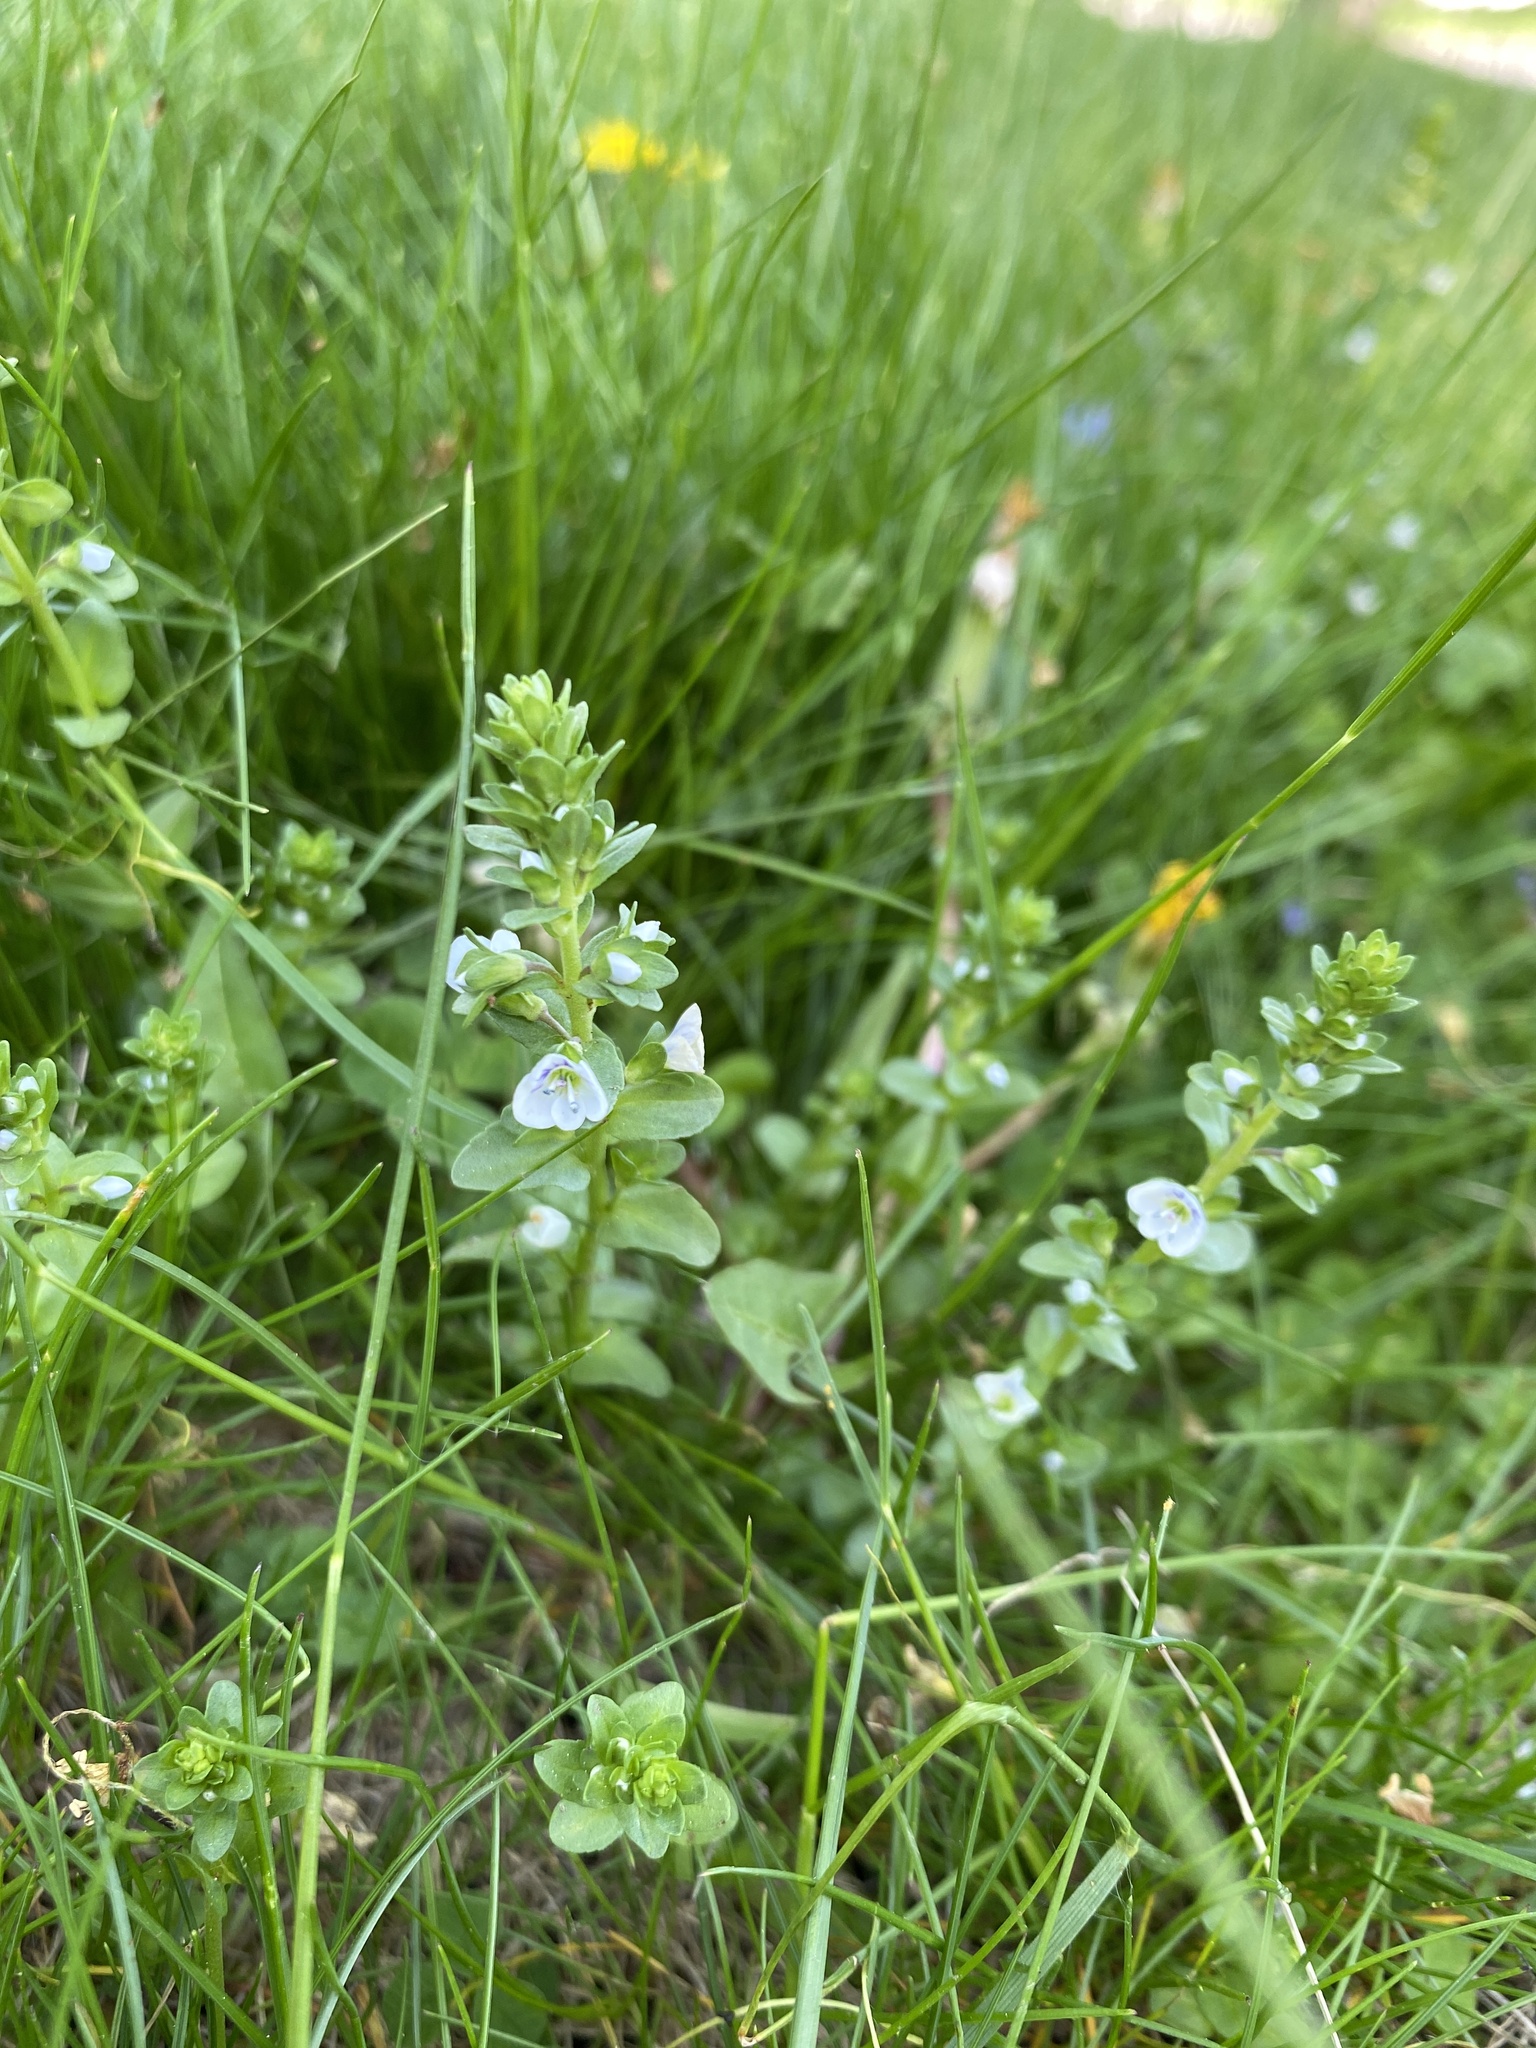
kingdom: Plantae
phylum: Tracheophyta
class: Magnoliopsida
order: Lamiales
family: Plantaginaceae
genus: Veronica
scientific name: Veronica serpyllifolia
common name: Thyme-leaved speedwell
